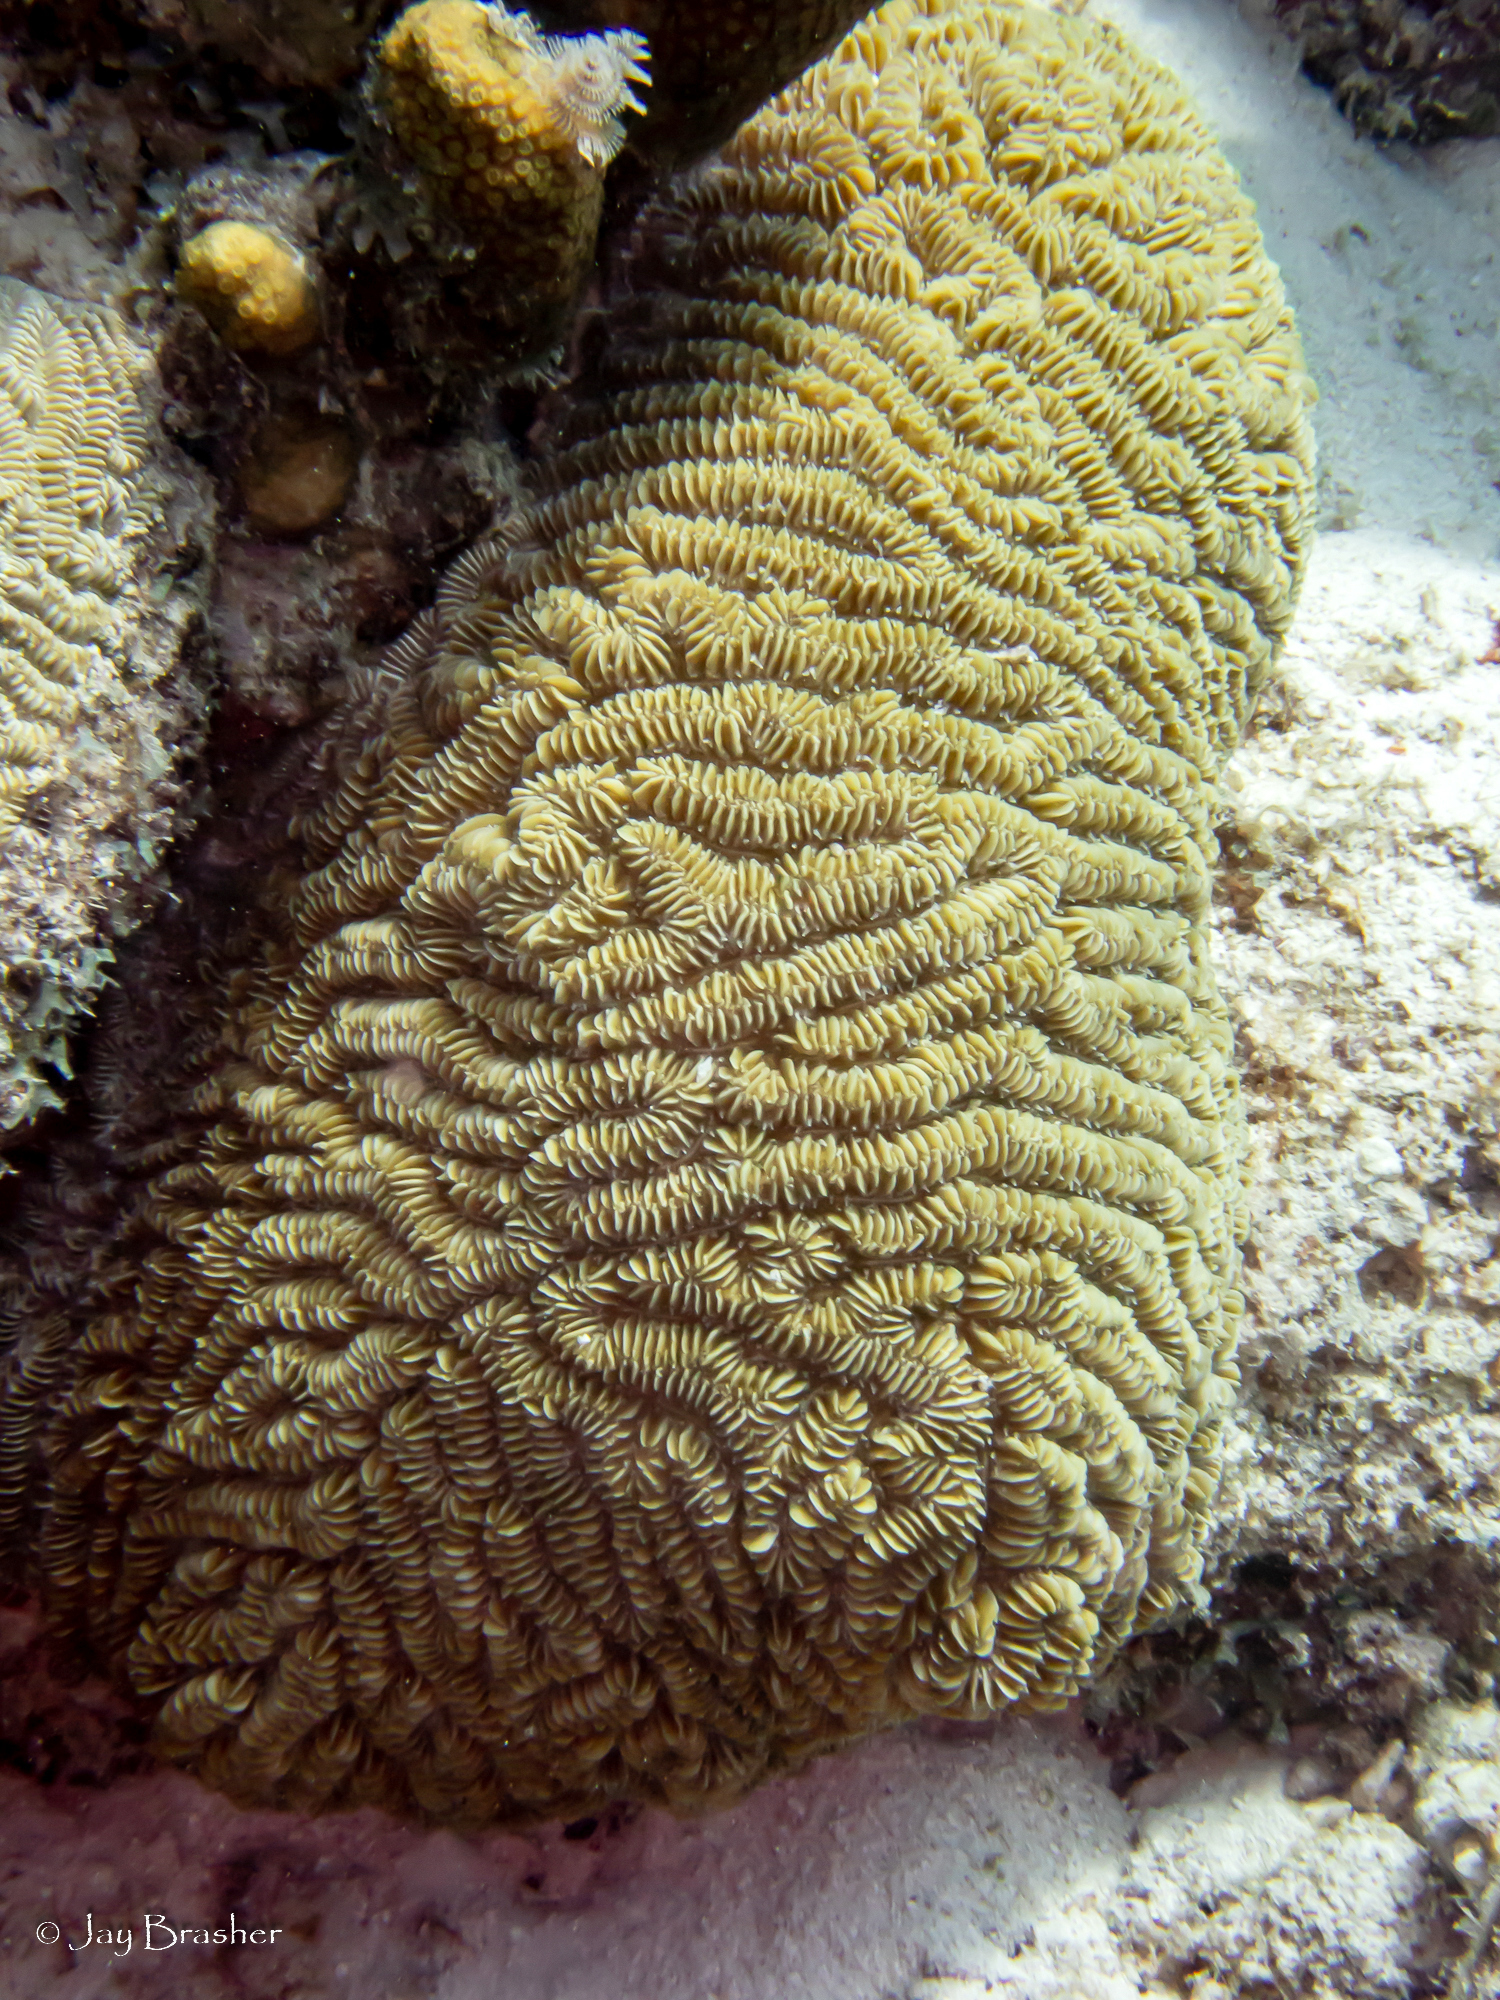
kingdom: Animalia
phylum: Cnidaria
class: Anthozoa
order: Scleractinia
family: Meandrinidae
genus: Meandrina
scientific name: Meandrina meandrites
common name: Maze coral
